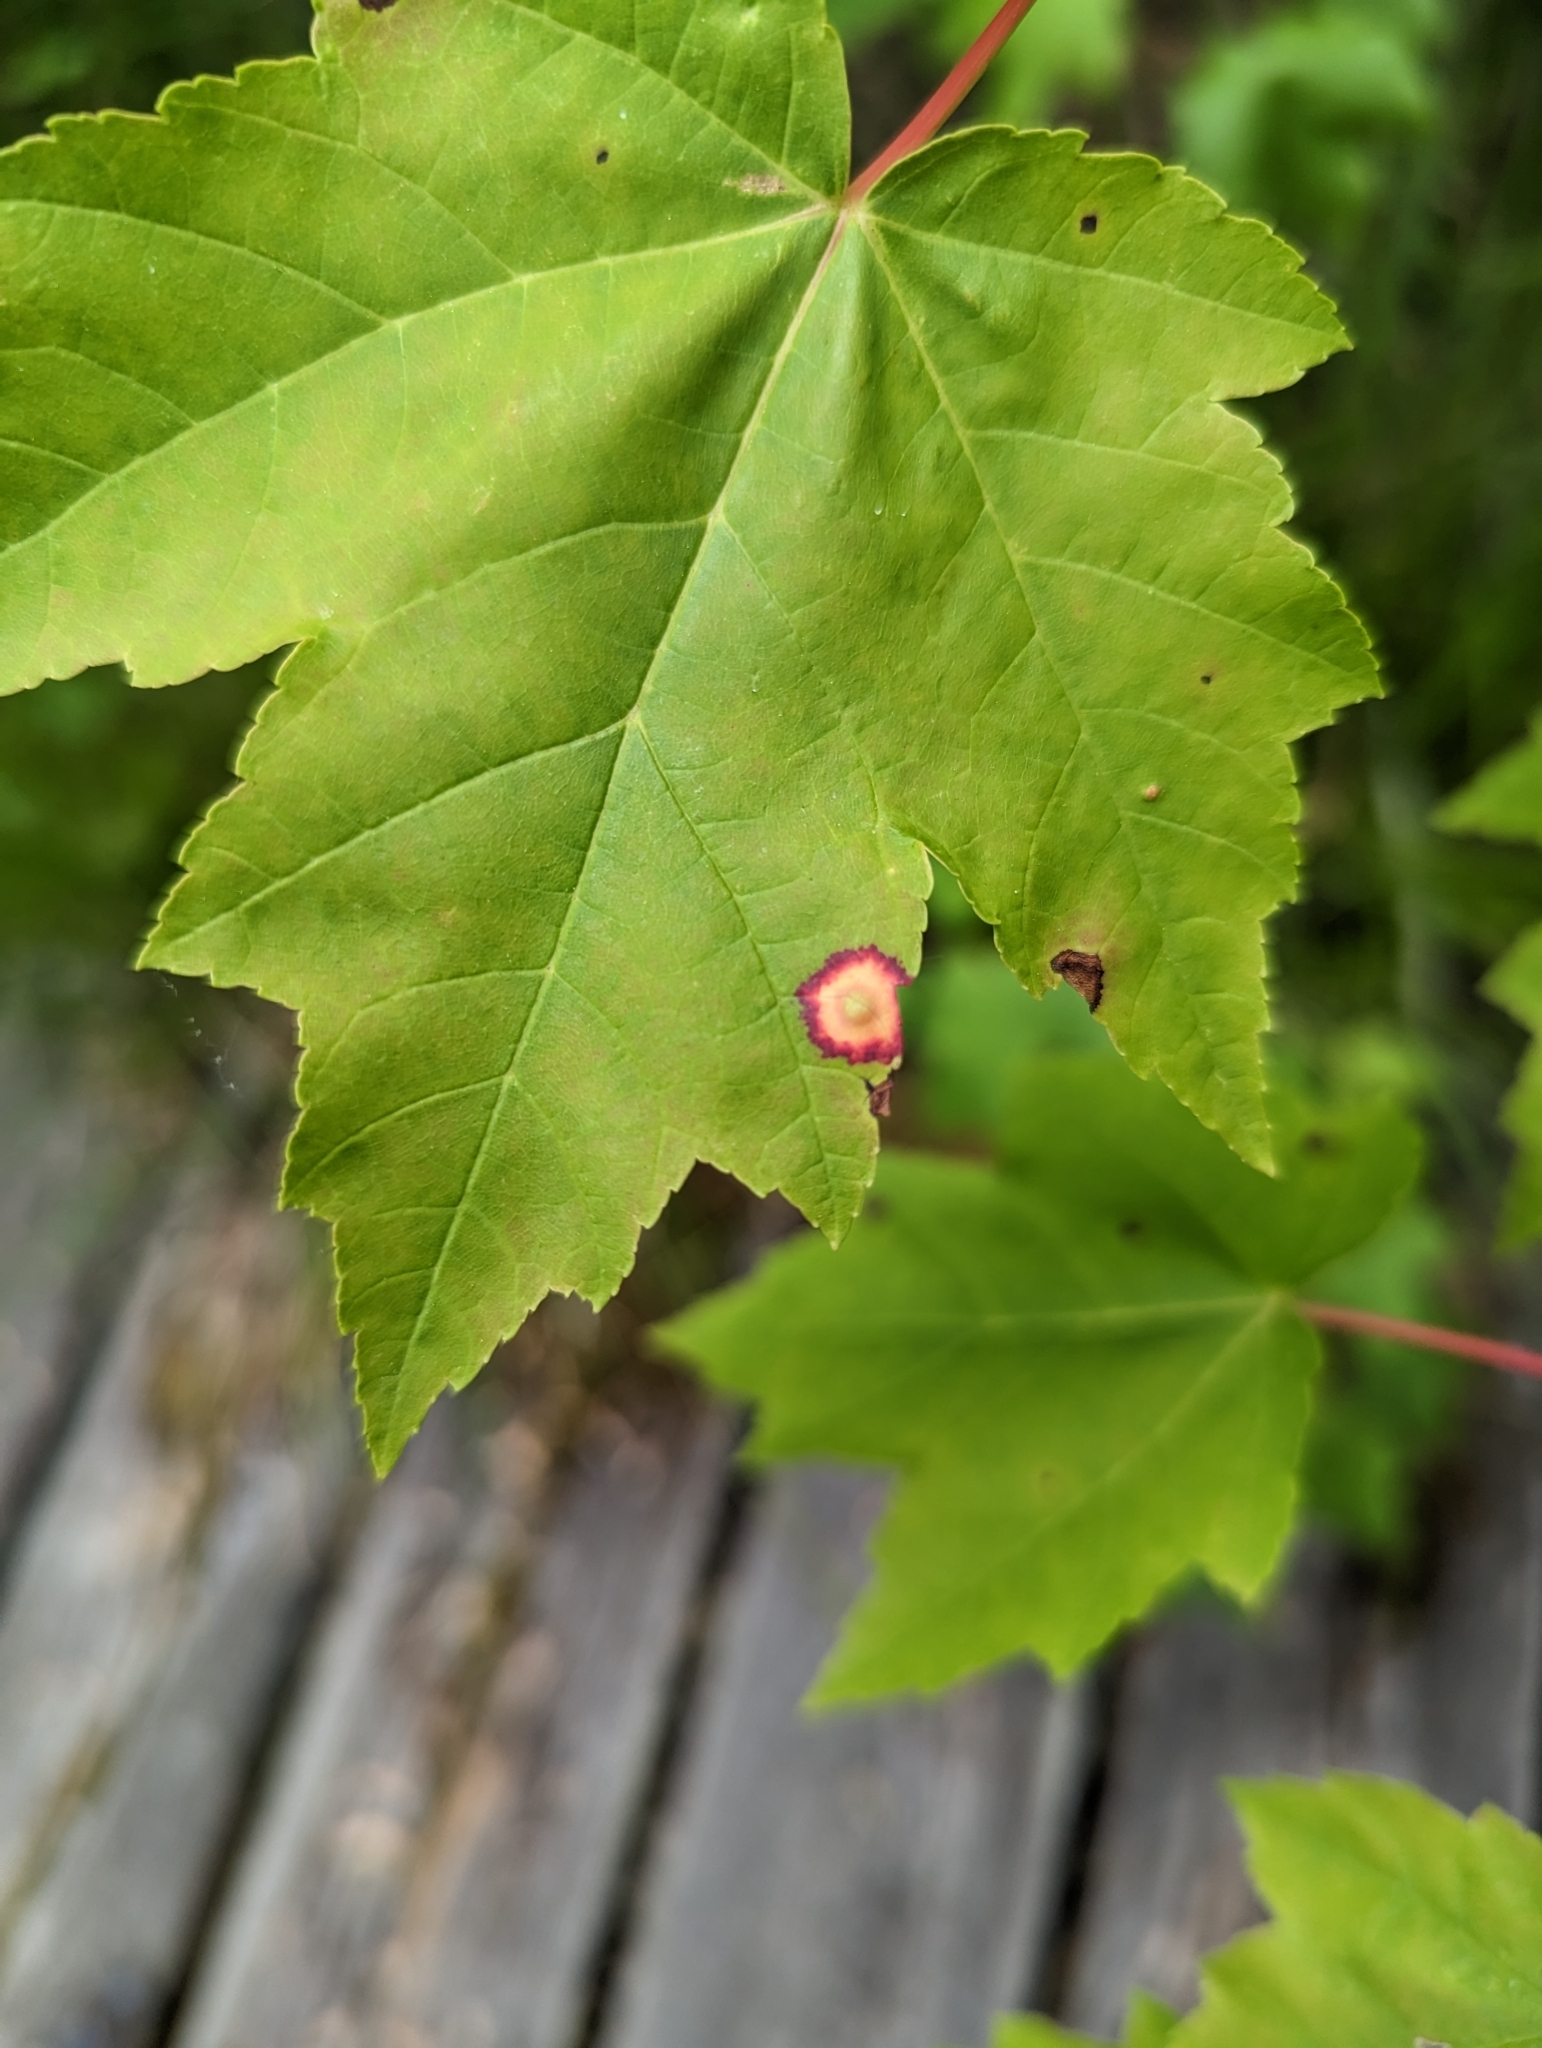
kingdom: Animalia
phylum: Arthropoda
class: Insecta
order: Diptera
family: Cecidomyiidae
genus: Acericecis
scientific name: Acericecis ocellaris
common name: Ocellate gall midge
